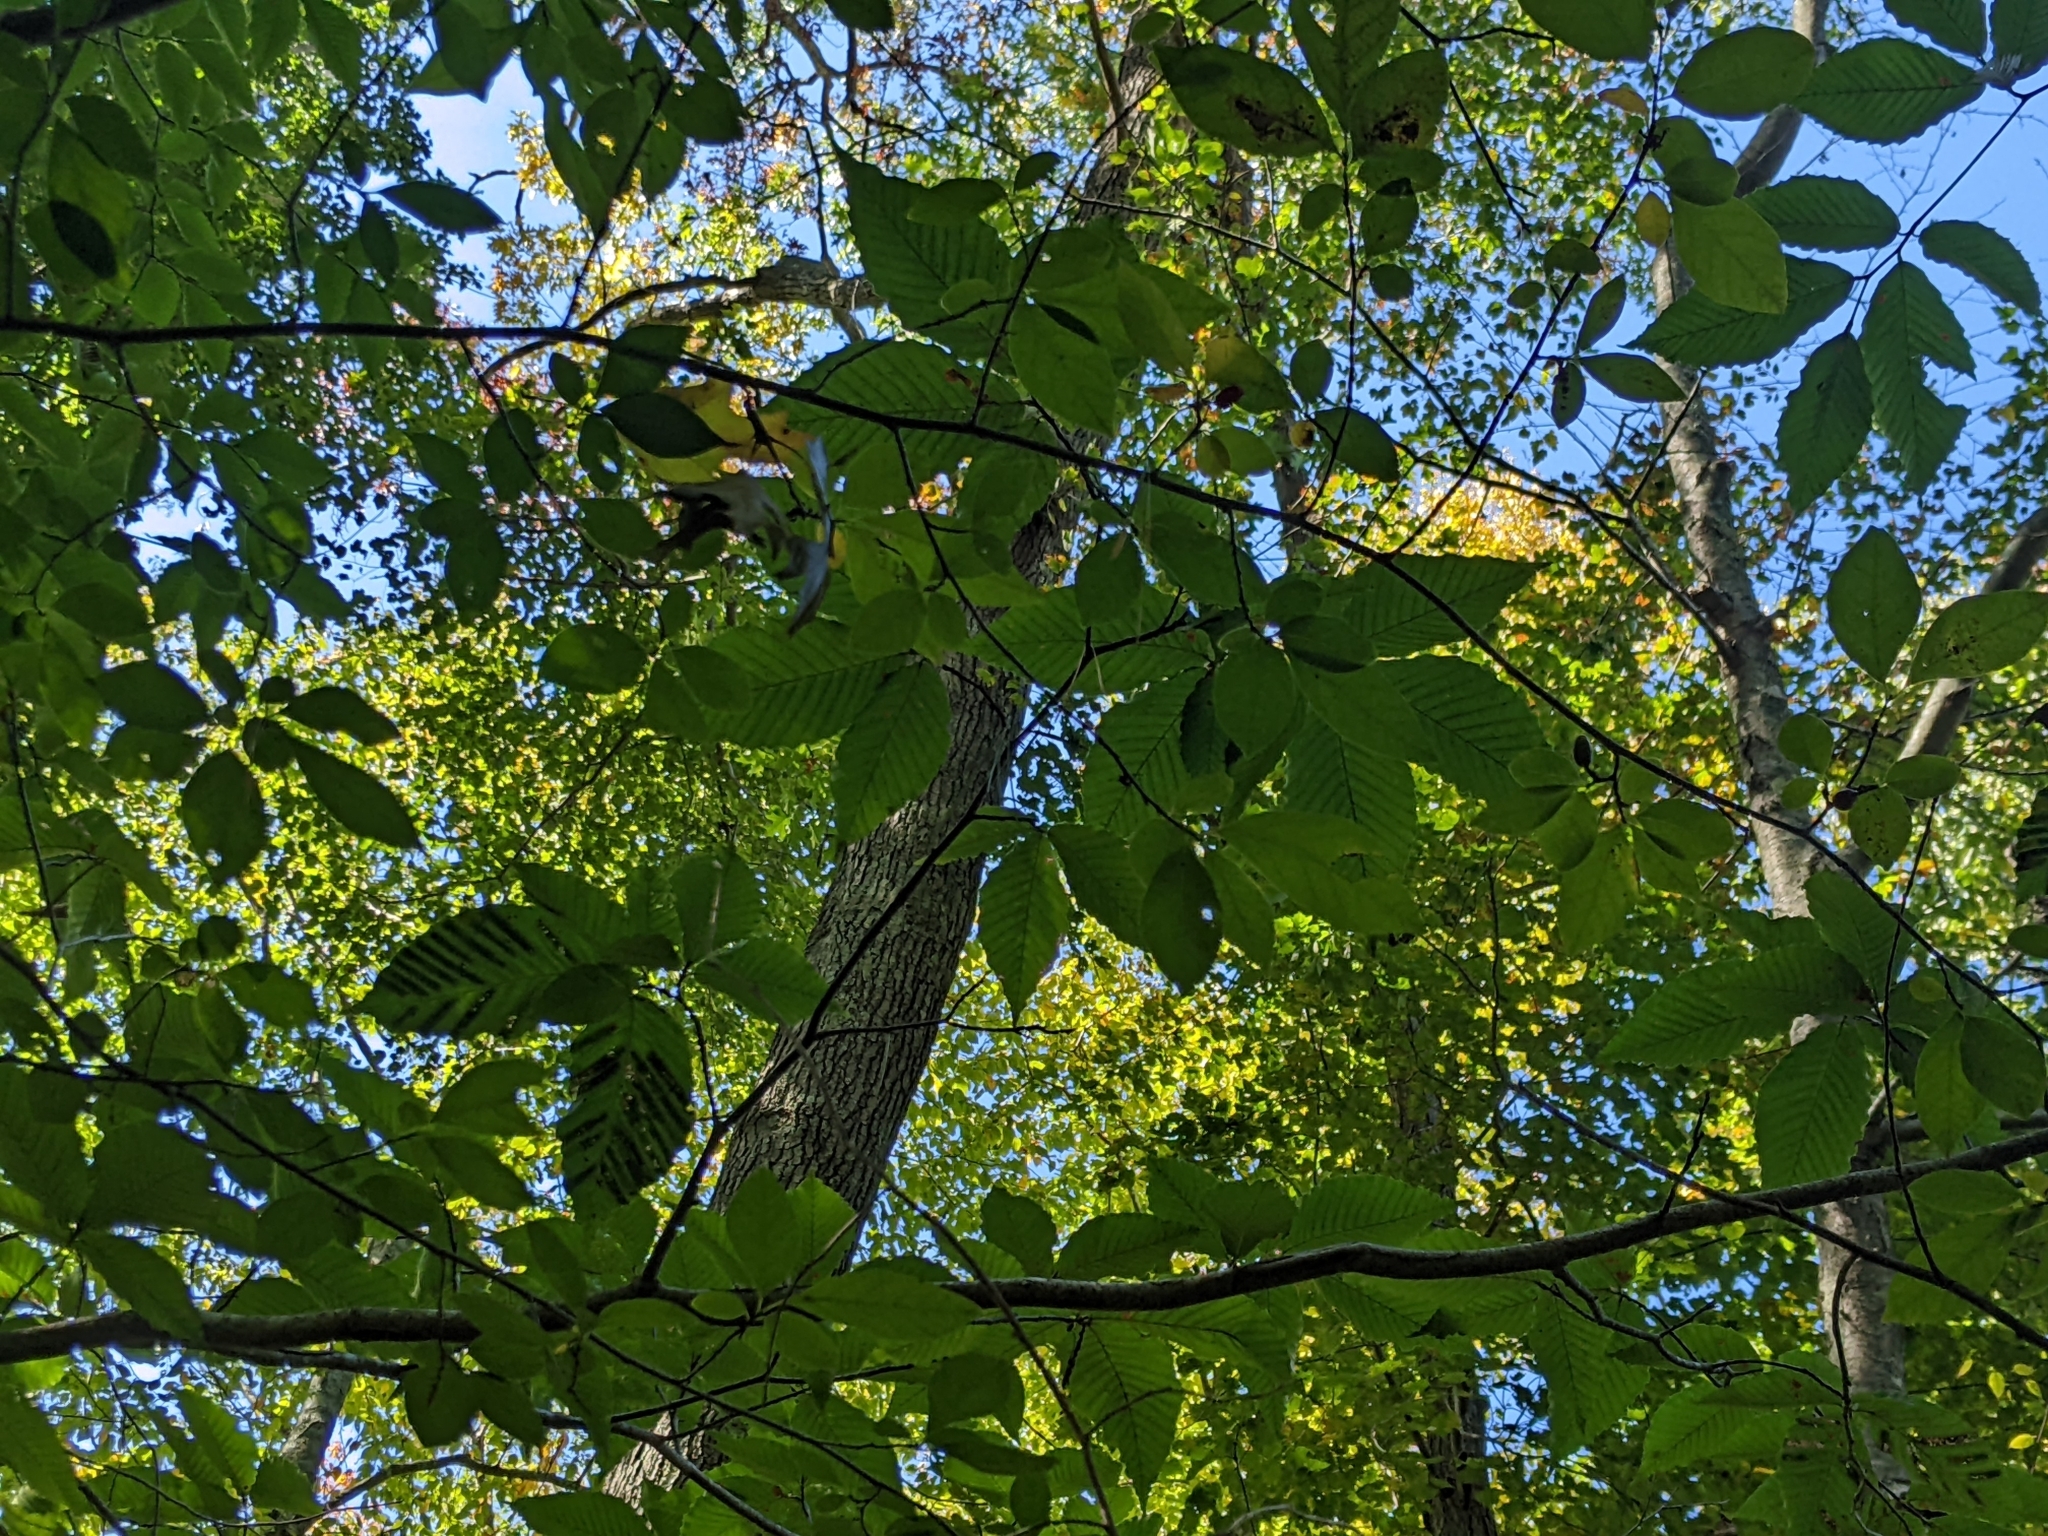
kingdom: Animalia
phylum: Nematoda
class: Chromadorea
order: Rhabditida
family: Anguinidae
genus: Litylenchus
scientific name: Litylenchus crenatae
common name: Beech leaf disease
